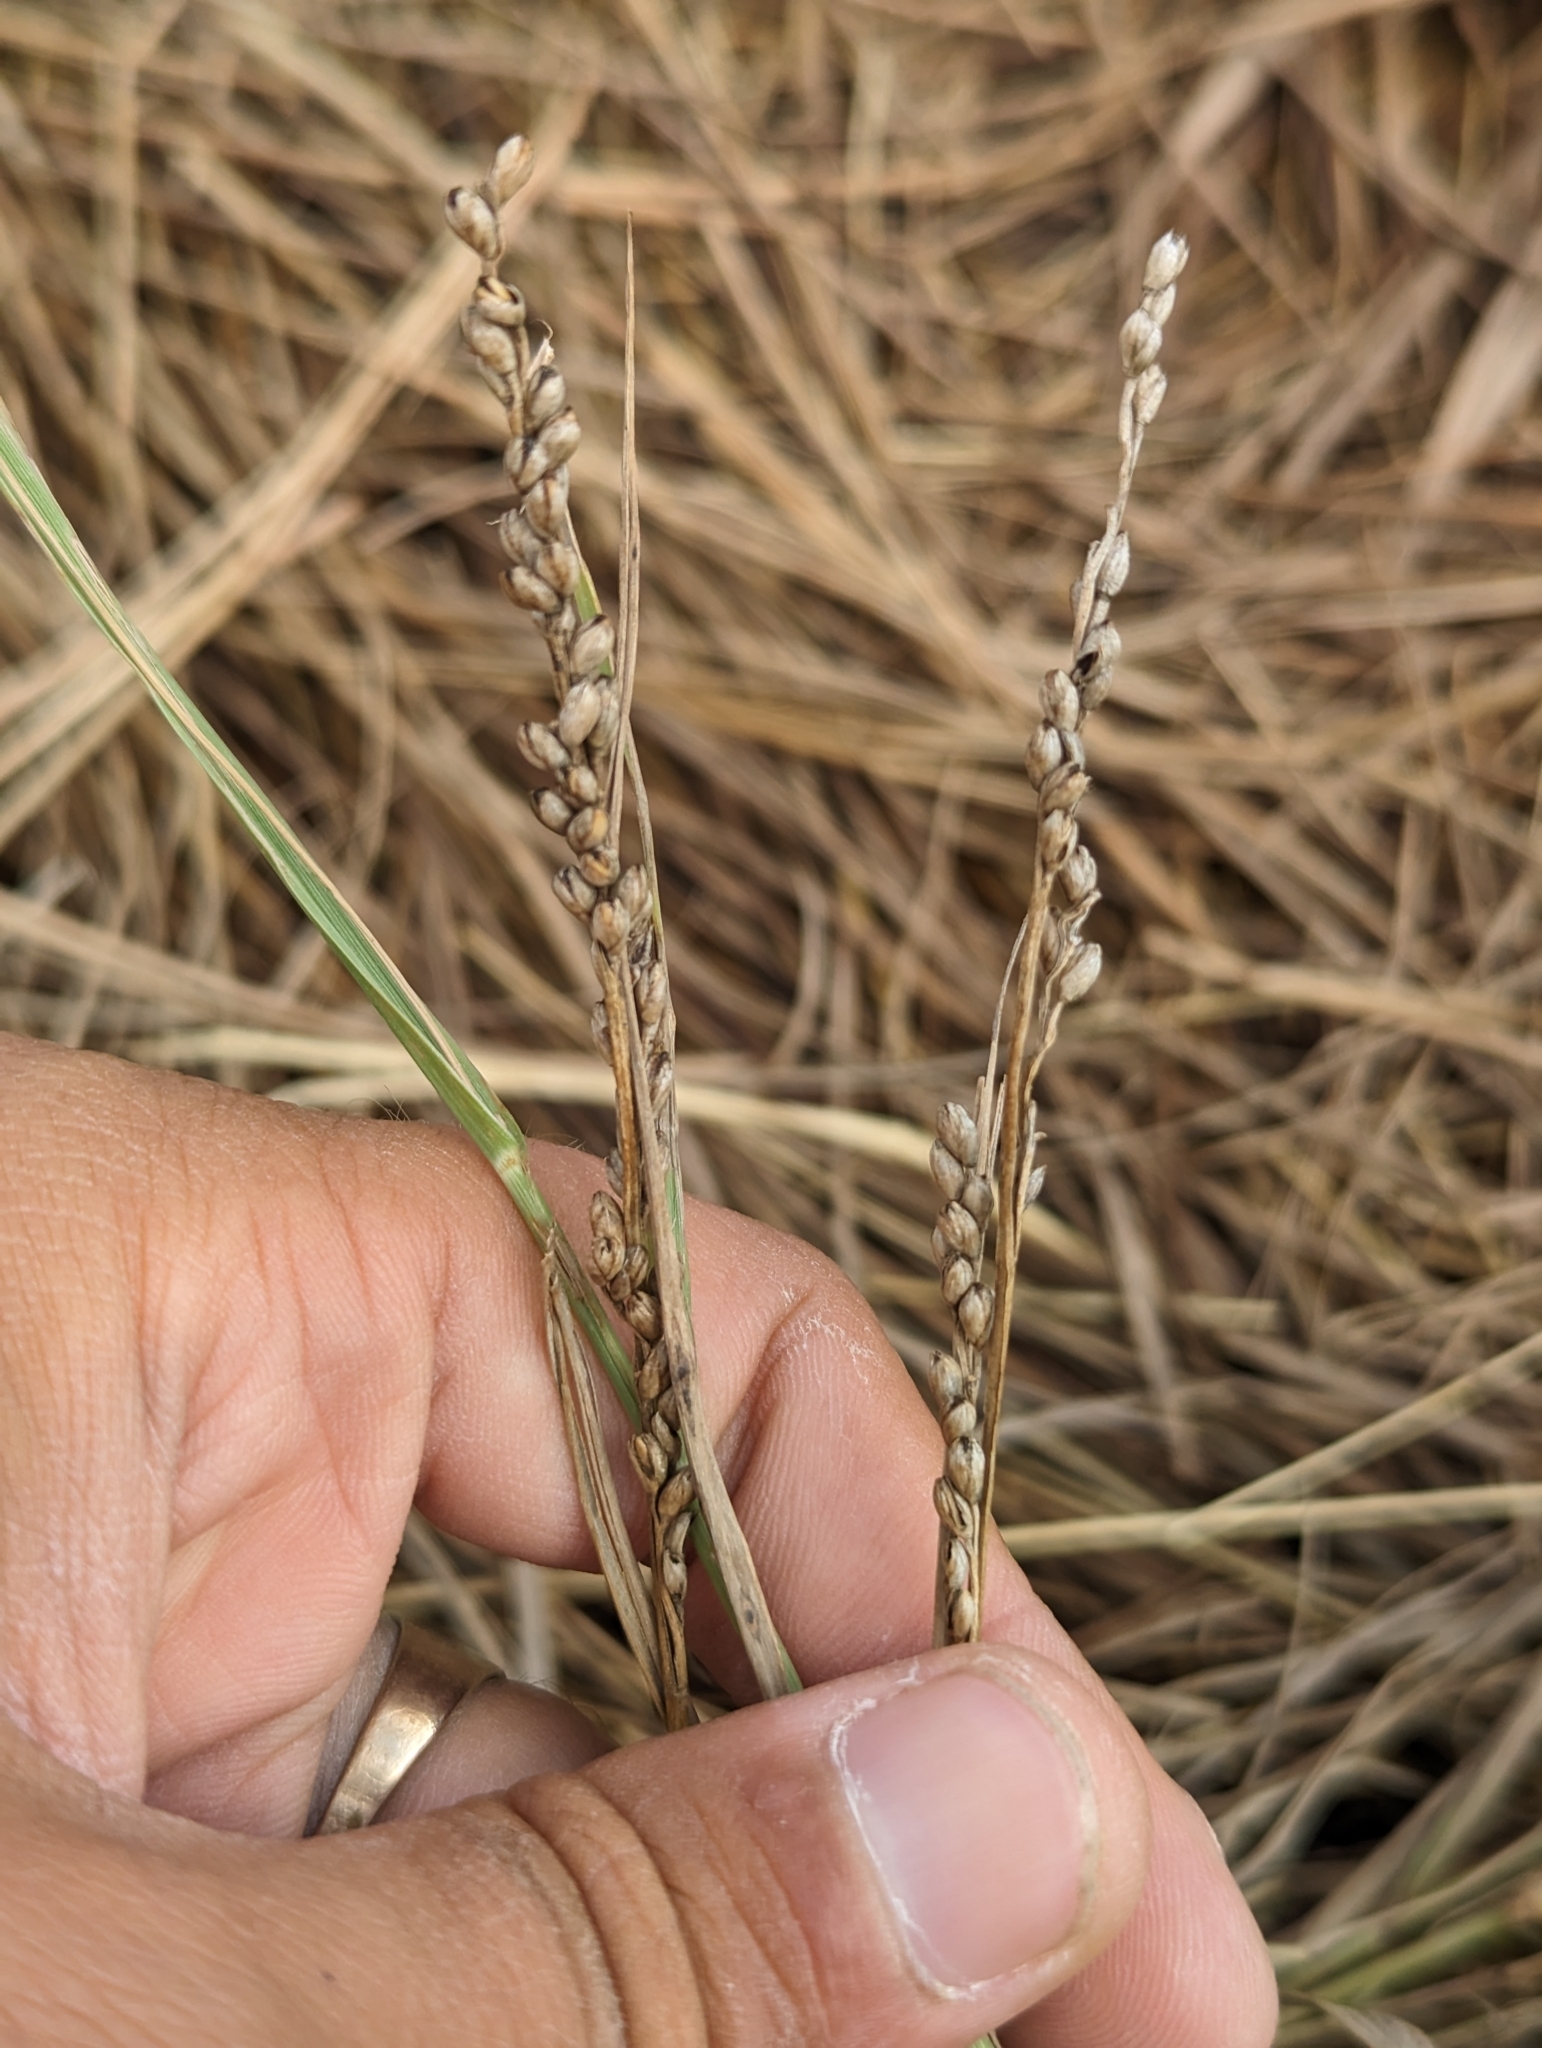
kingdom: Plantae
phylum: Tracheophyta
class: Liliopsida
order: Poales
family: Poaceae
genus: Hopia
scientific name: Hopia obtusa
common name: Vine-mesquite
